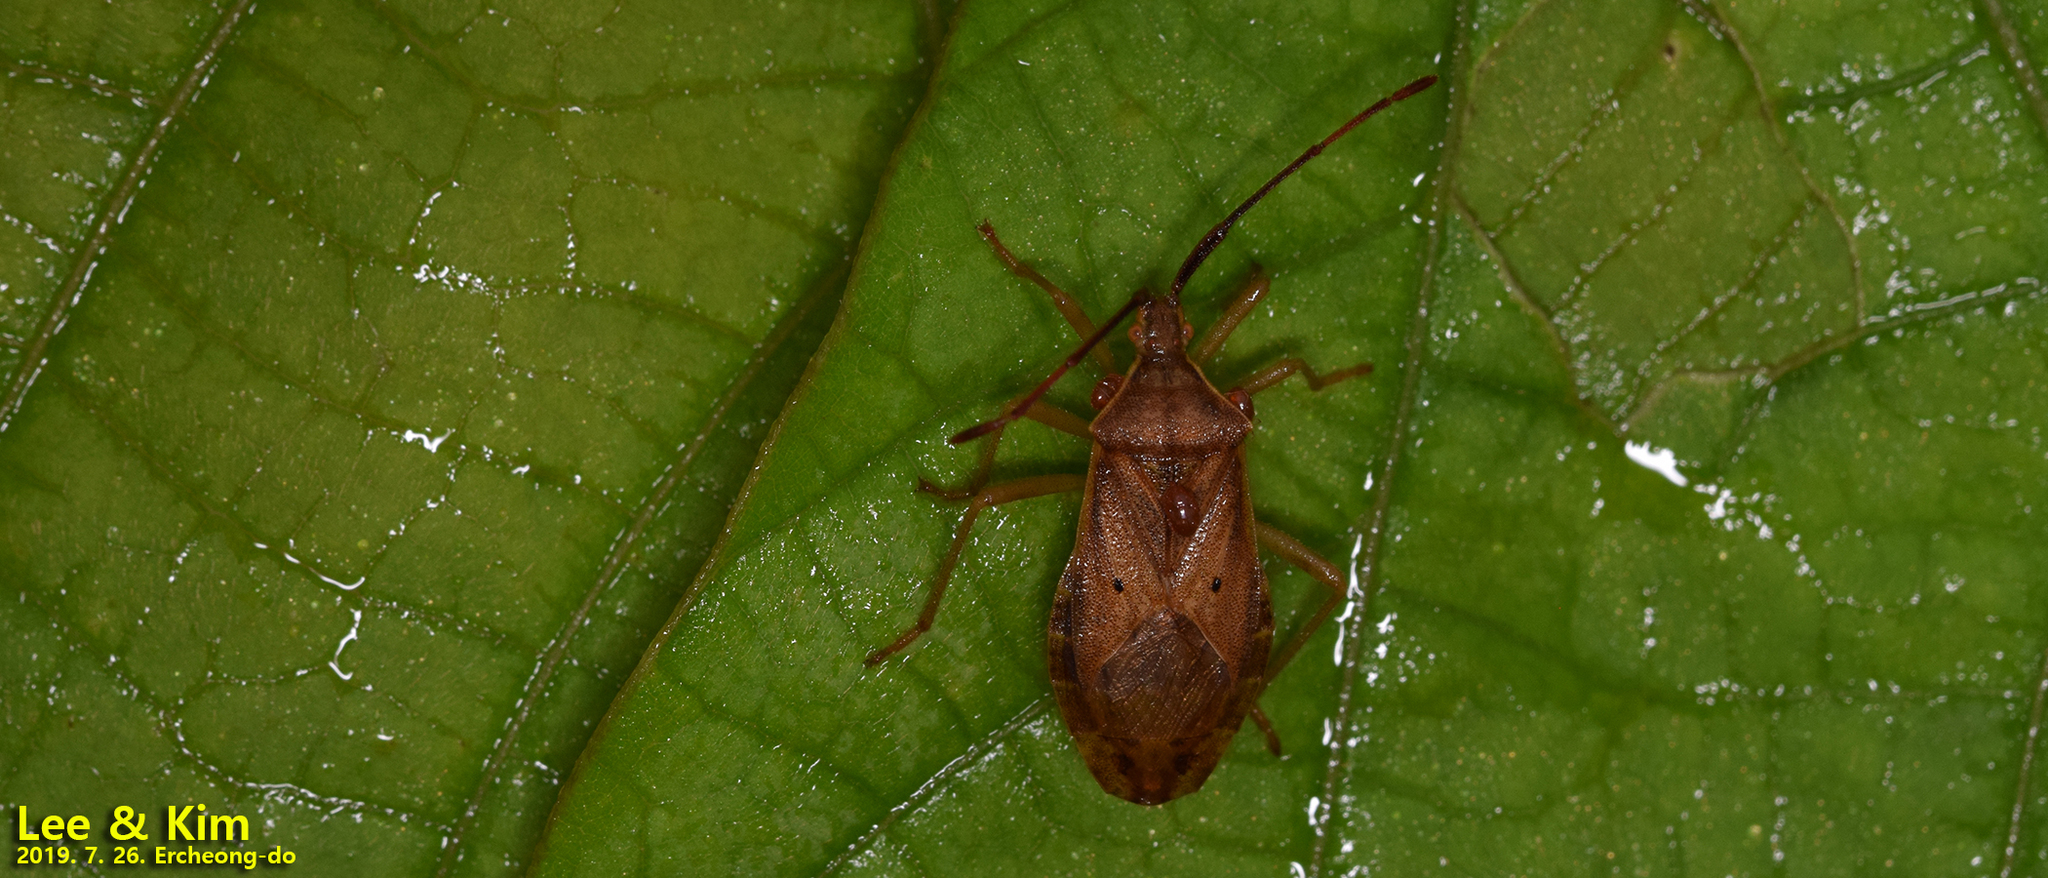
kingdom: Animalia
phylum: Arthropoda
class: Insecta
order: Hemiptera
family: Coreidae
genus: Homoeocerus
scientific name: Homoeocerus unipunctatus
